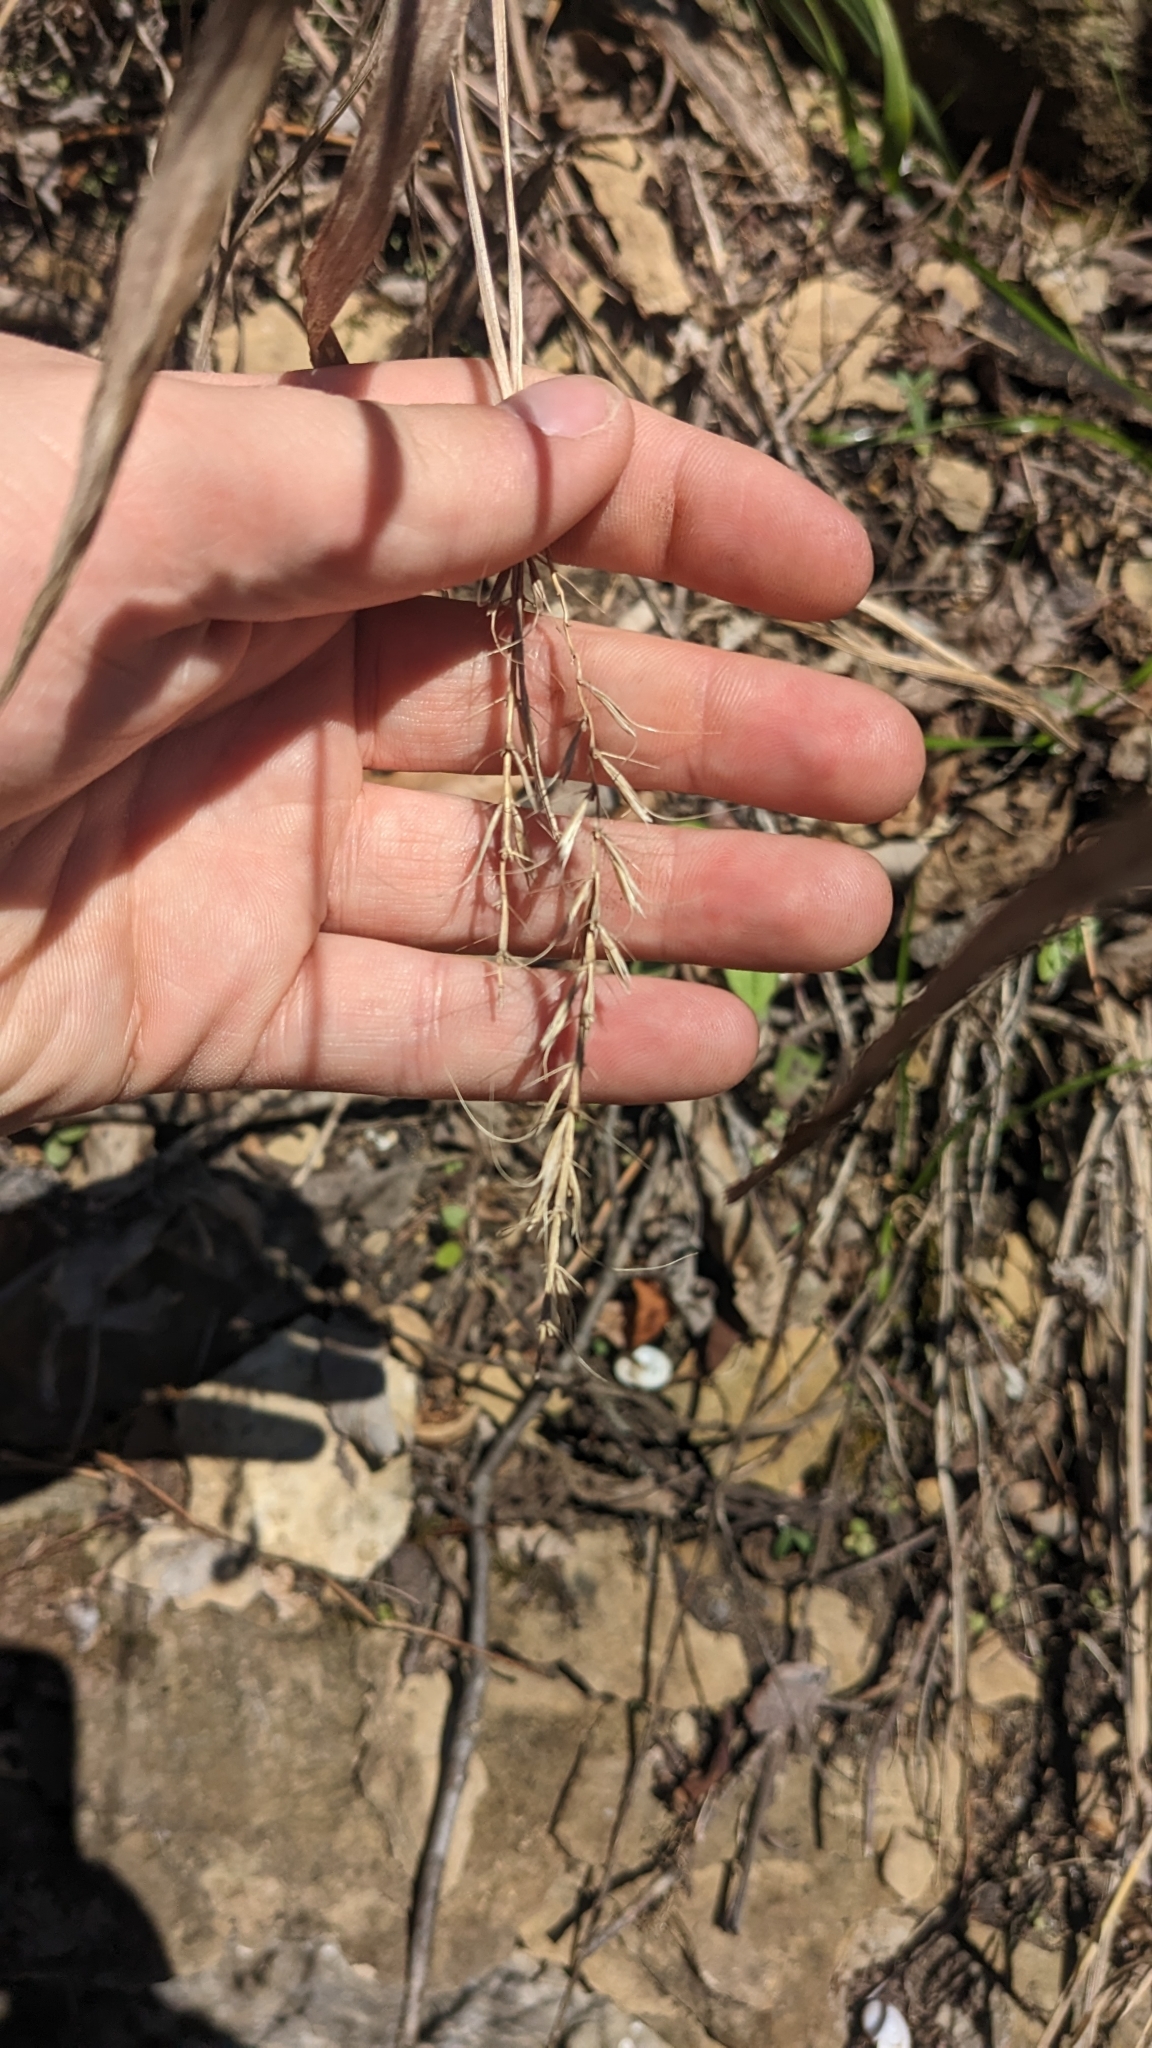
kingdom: Plantae
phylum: Tracheophyta
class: Liliopsida
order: Poales
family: Poaceae
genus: Elymus
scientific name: Elymus svensonii
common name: Svenson's wild rye
